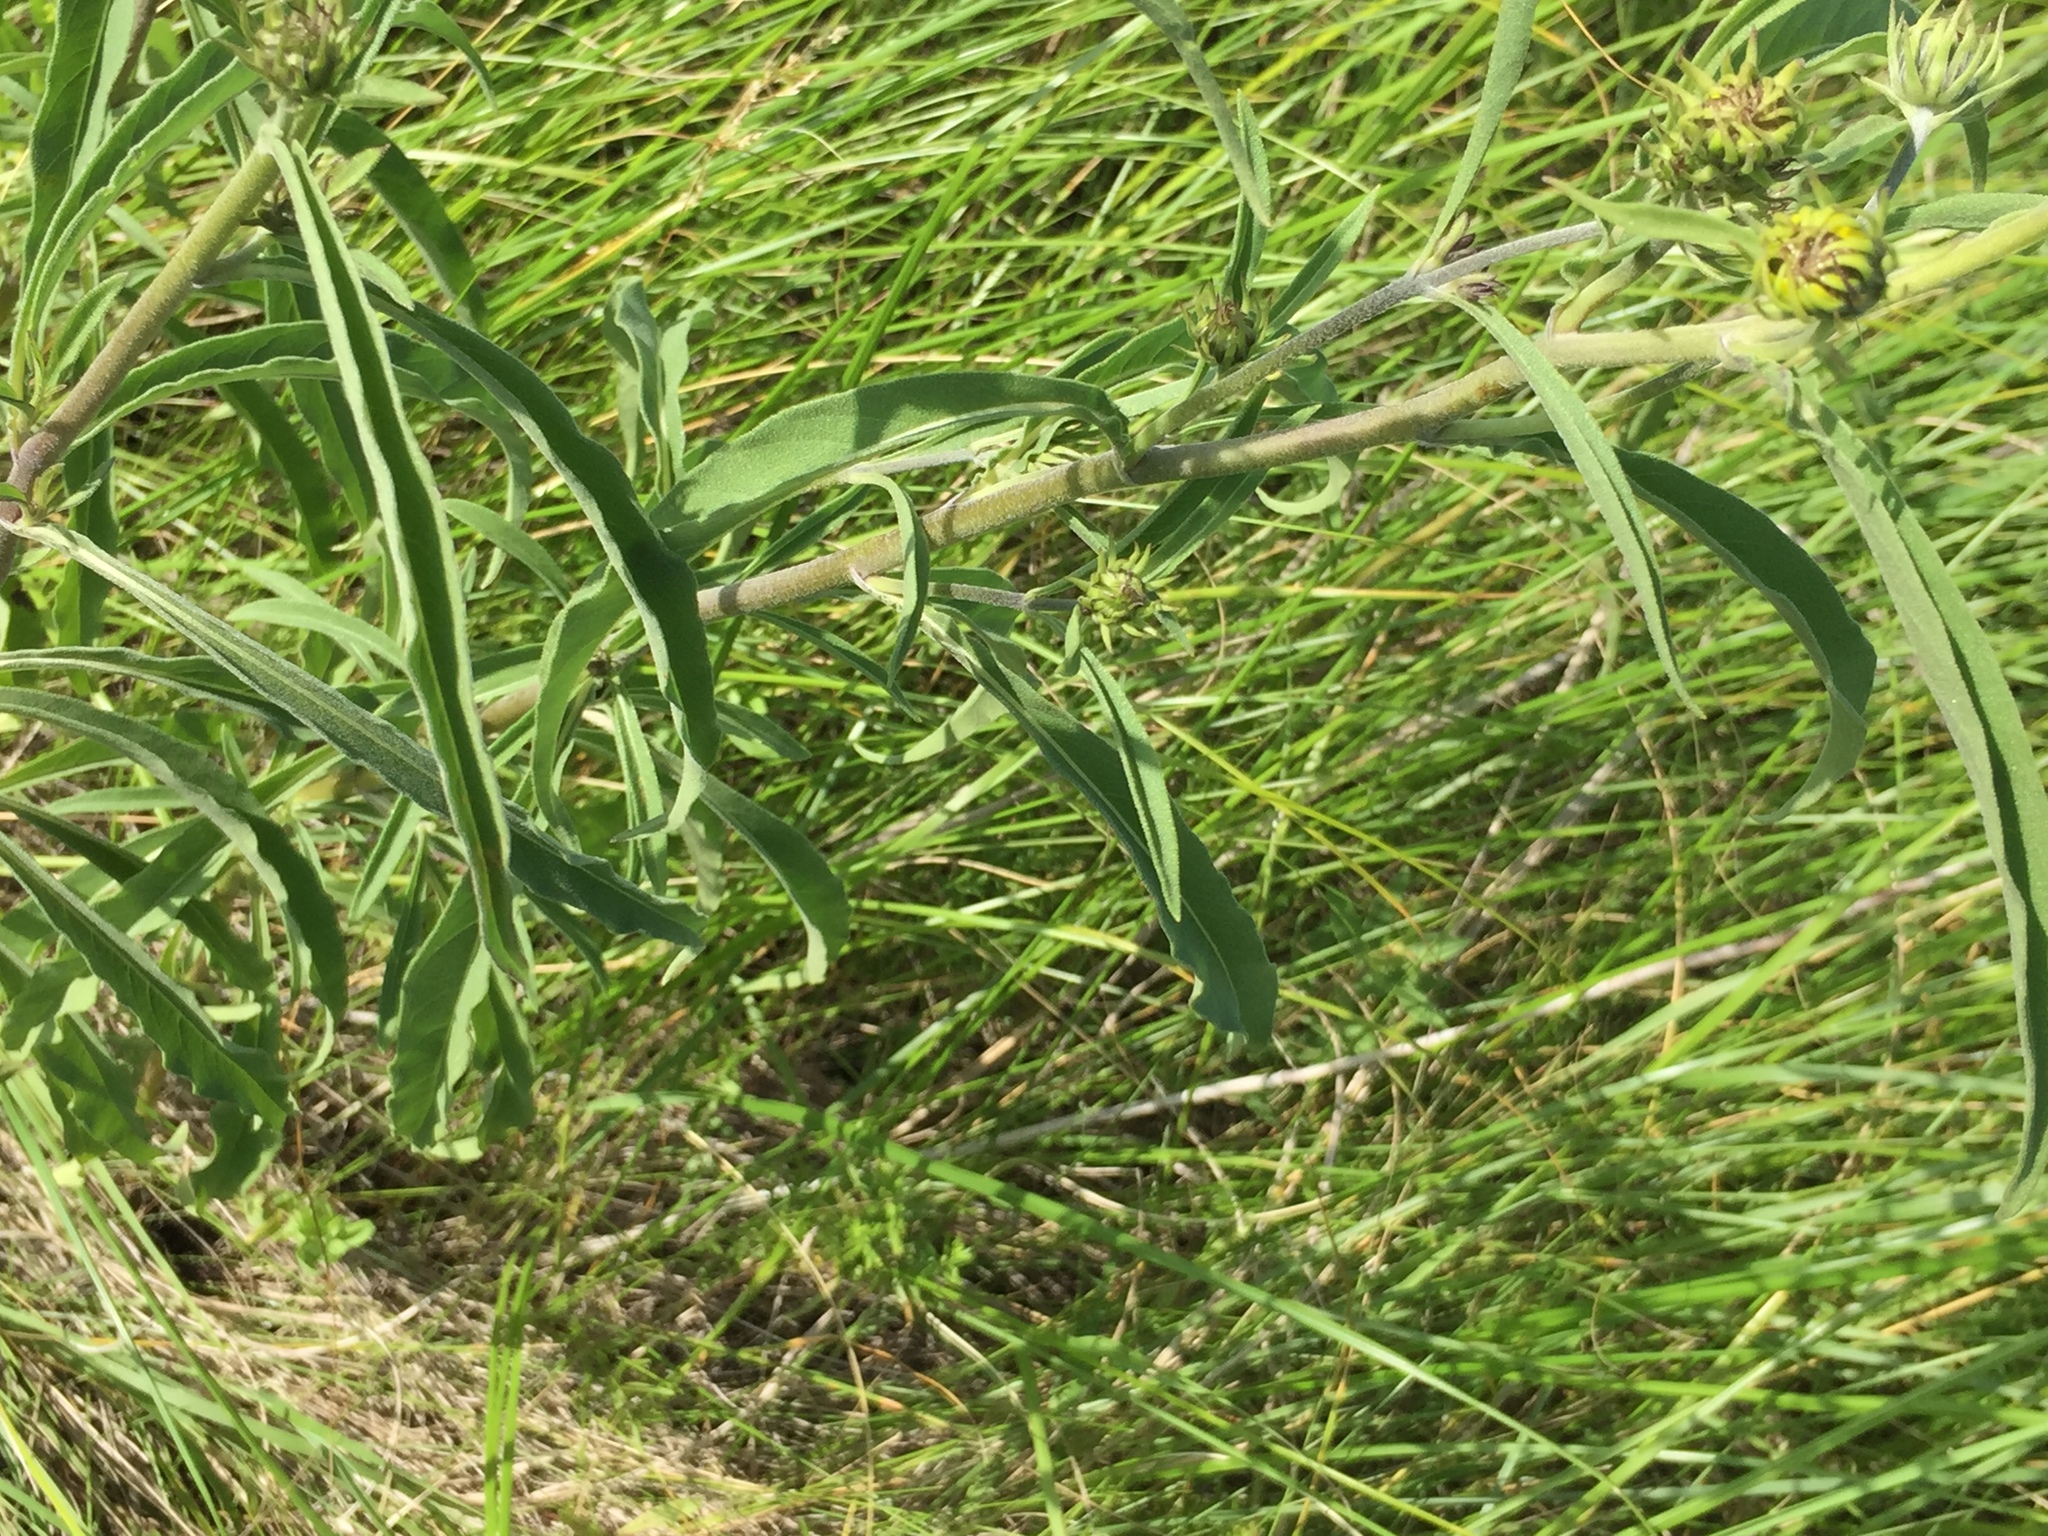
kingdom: Plantae
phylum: Tracheophyta
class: Magnoliopsida
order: Asterales
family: Asteraceae
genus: Helianthus
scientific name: Helianthus maximiliani
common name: Maximilian's sunflower
